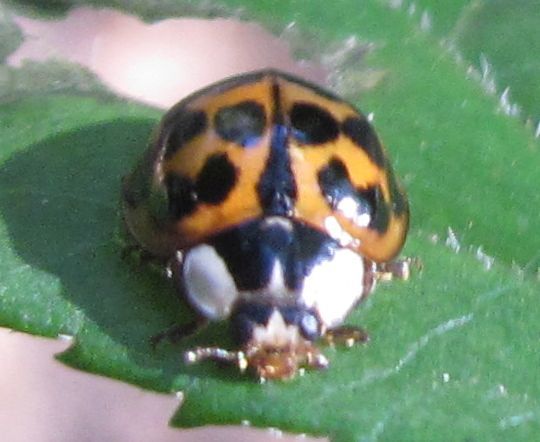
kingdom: Animalia
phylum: Arthropoda
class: Insecta
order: Coleoptera
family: Coccinellidae
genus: Harmonia
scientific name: Harmonia axyridis
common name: Harlequin ladybird
